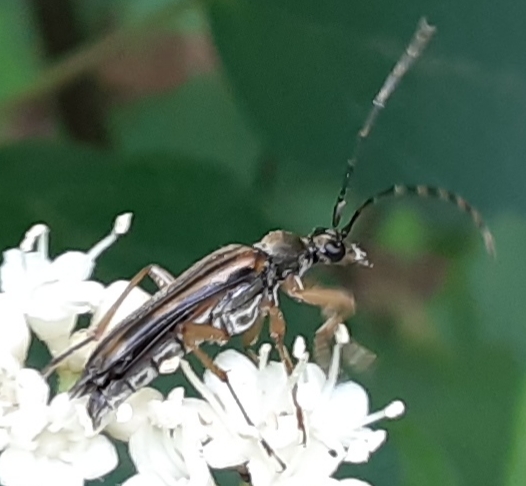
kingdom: Animalia
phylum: Arthropoda
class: Insecta
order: Coleoptera
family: Cerambycidae
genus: Analeptura
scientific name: Analeptura lineola
